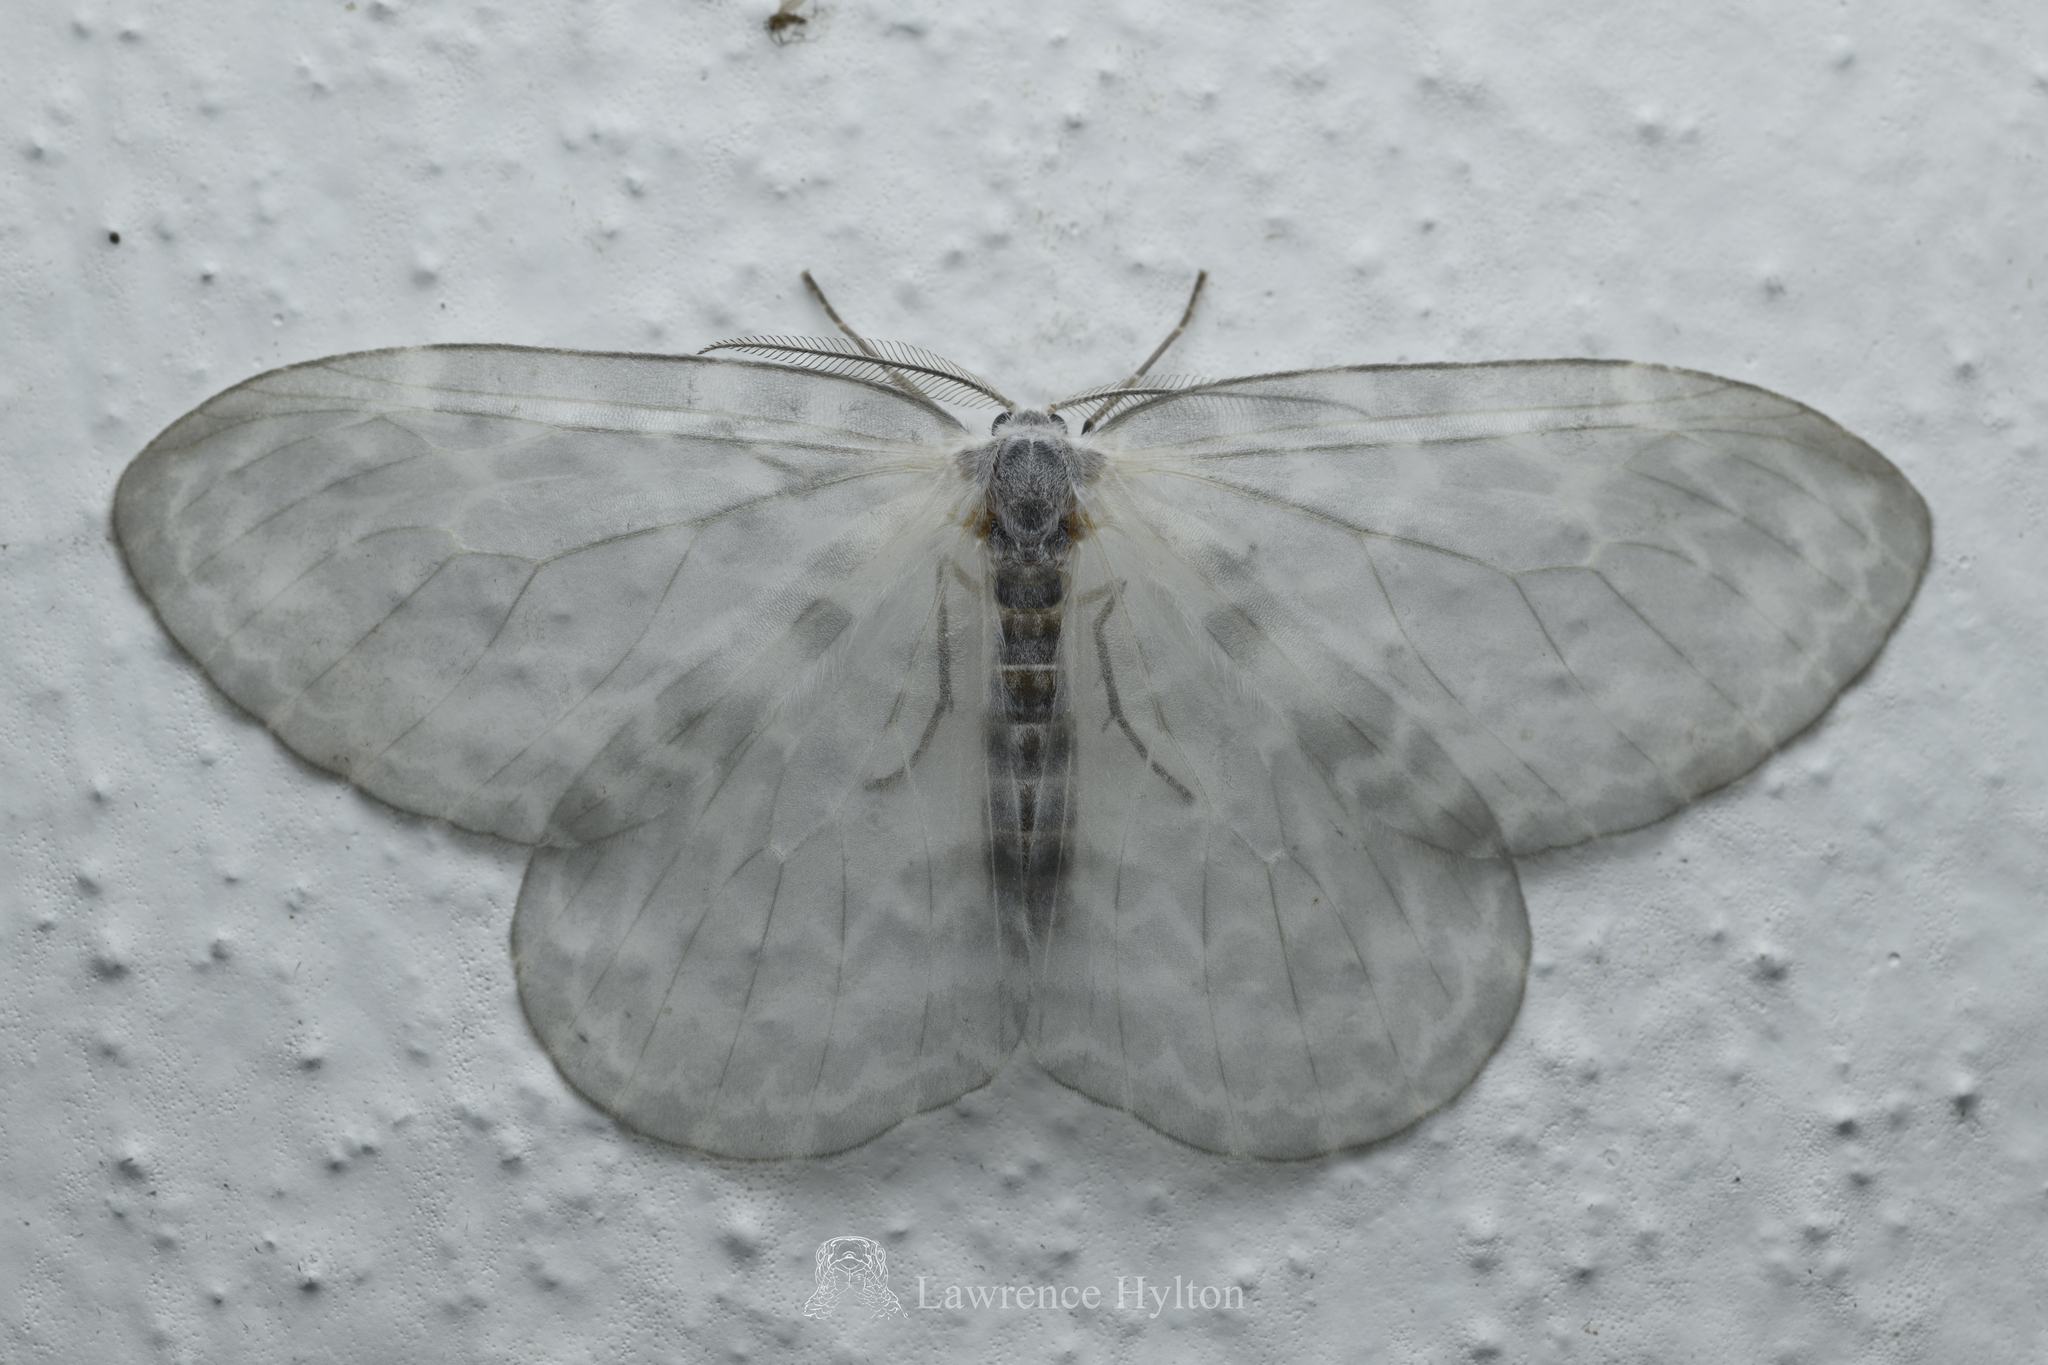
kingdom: Animalia
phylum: Arthropoda
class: Insecta
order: Lepidoptera
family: Drepanidae
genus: Deroca
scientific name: Deroca hyalina
